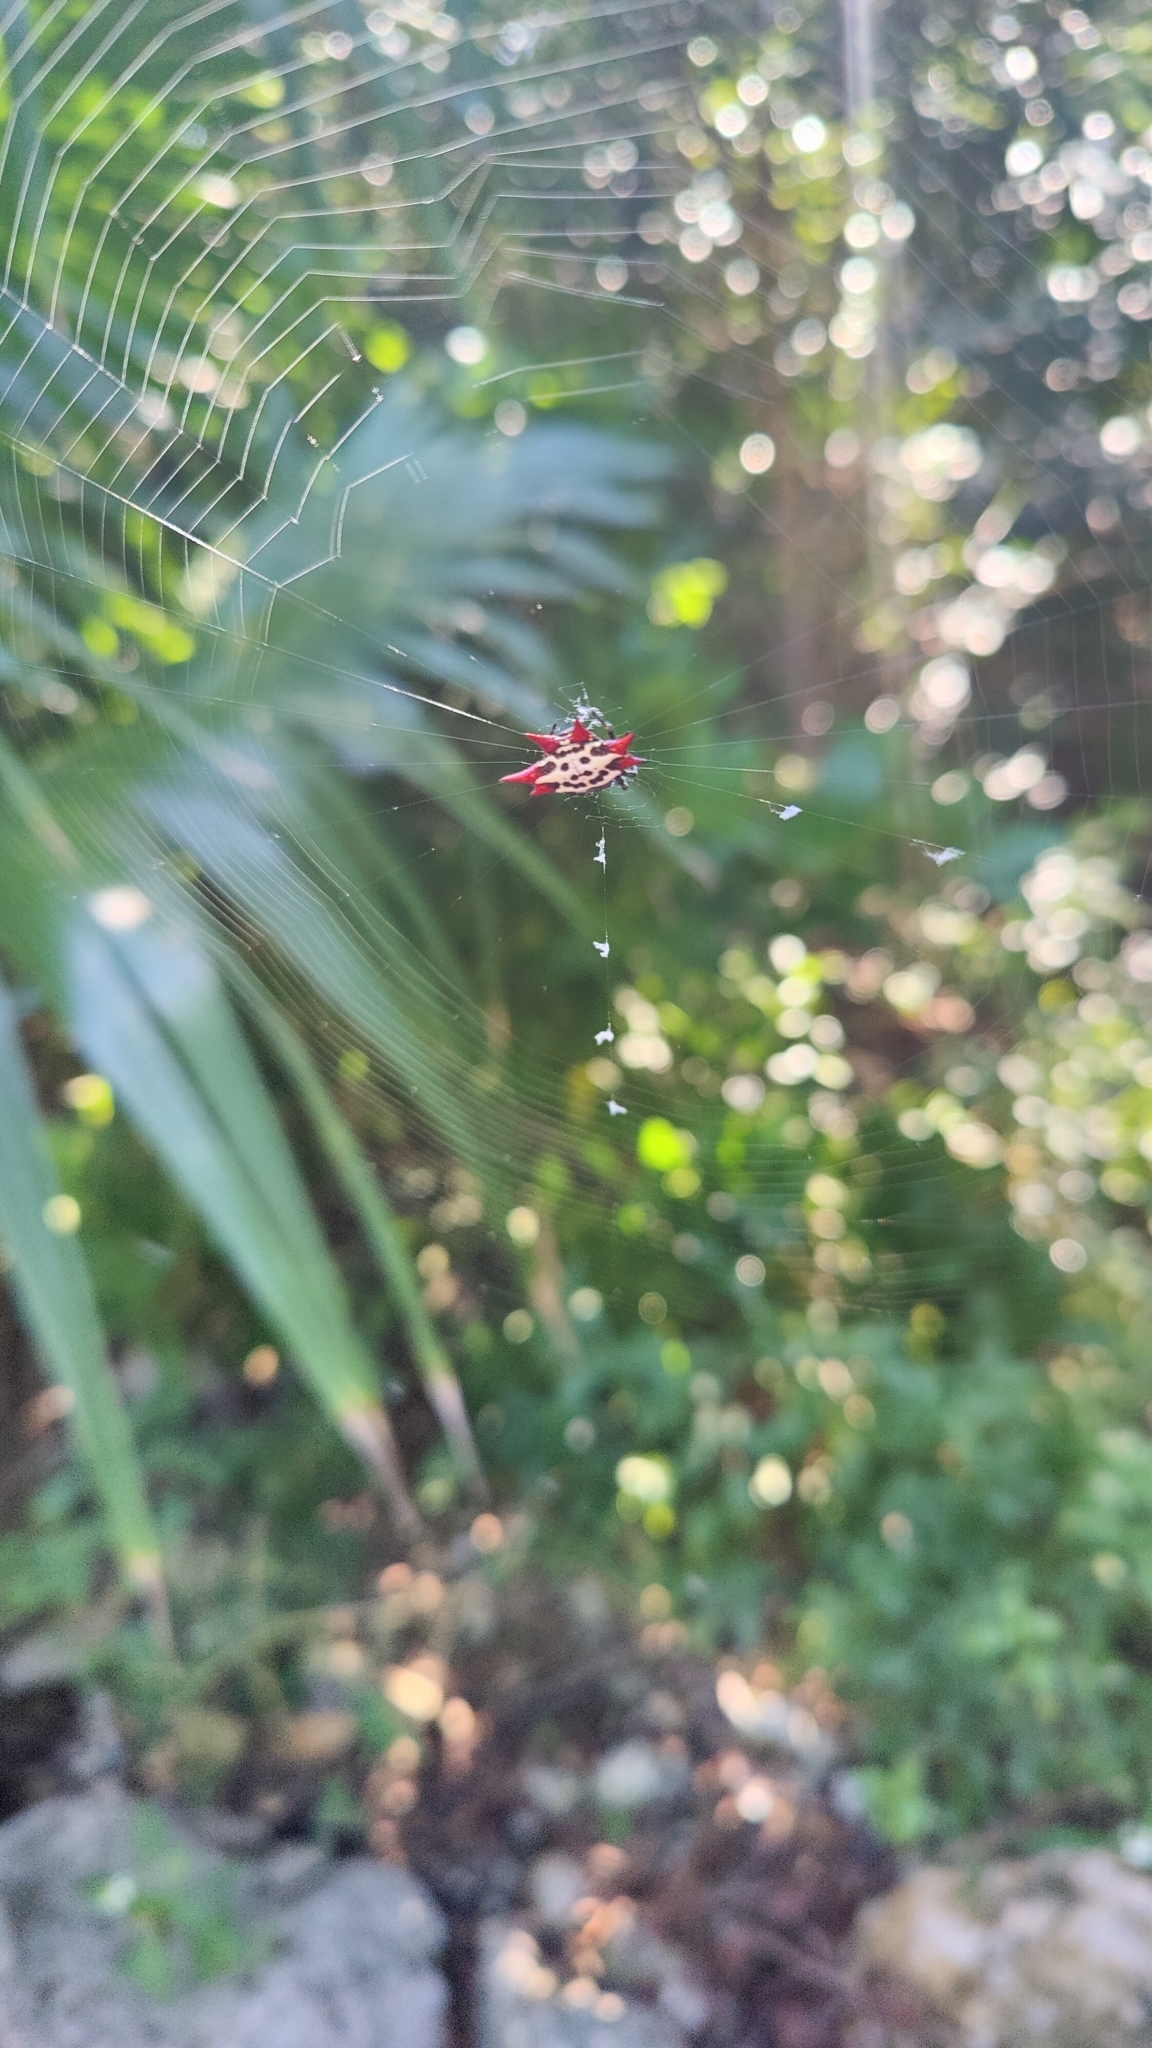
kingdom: Animalia
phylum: Arthropoda
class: Arachnida
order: Araneae
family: Araneidae
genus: Gasteracantha
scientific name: Gasteracantha cancriformis
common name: Orb weavers
